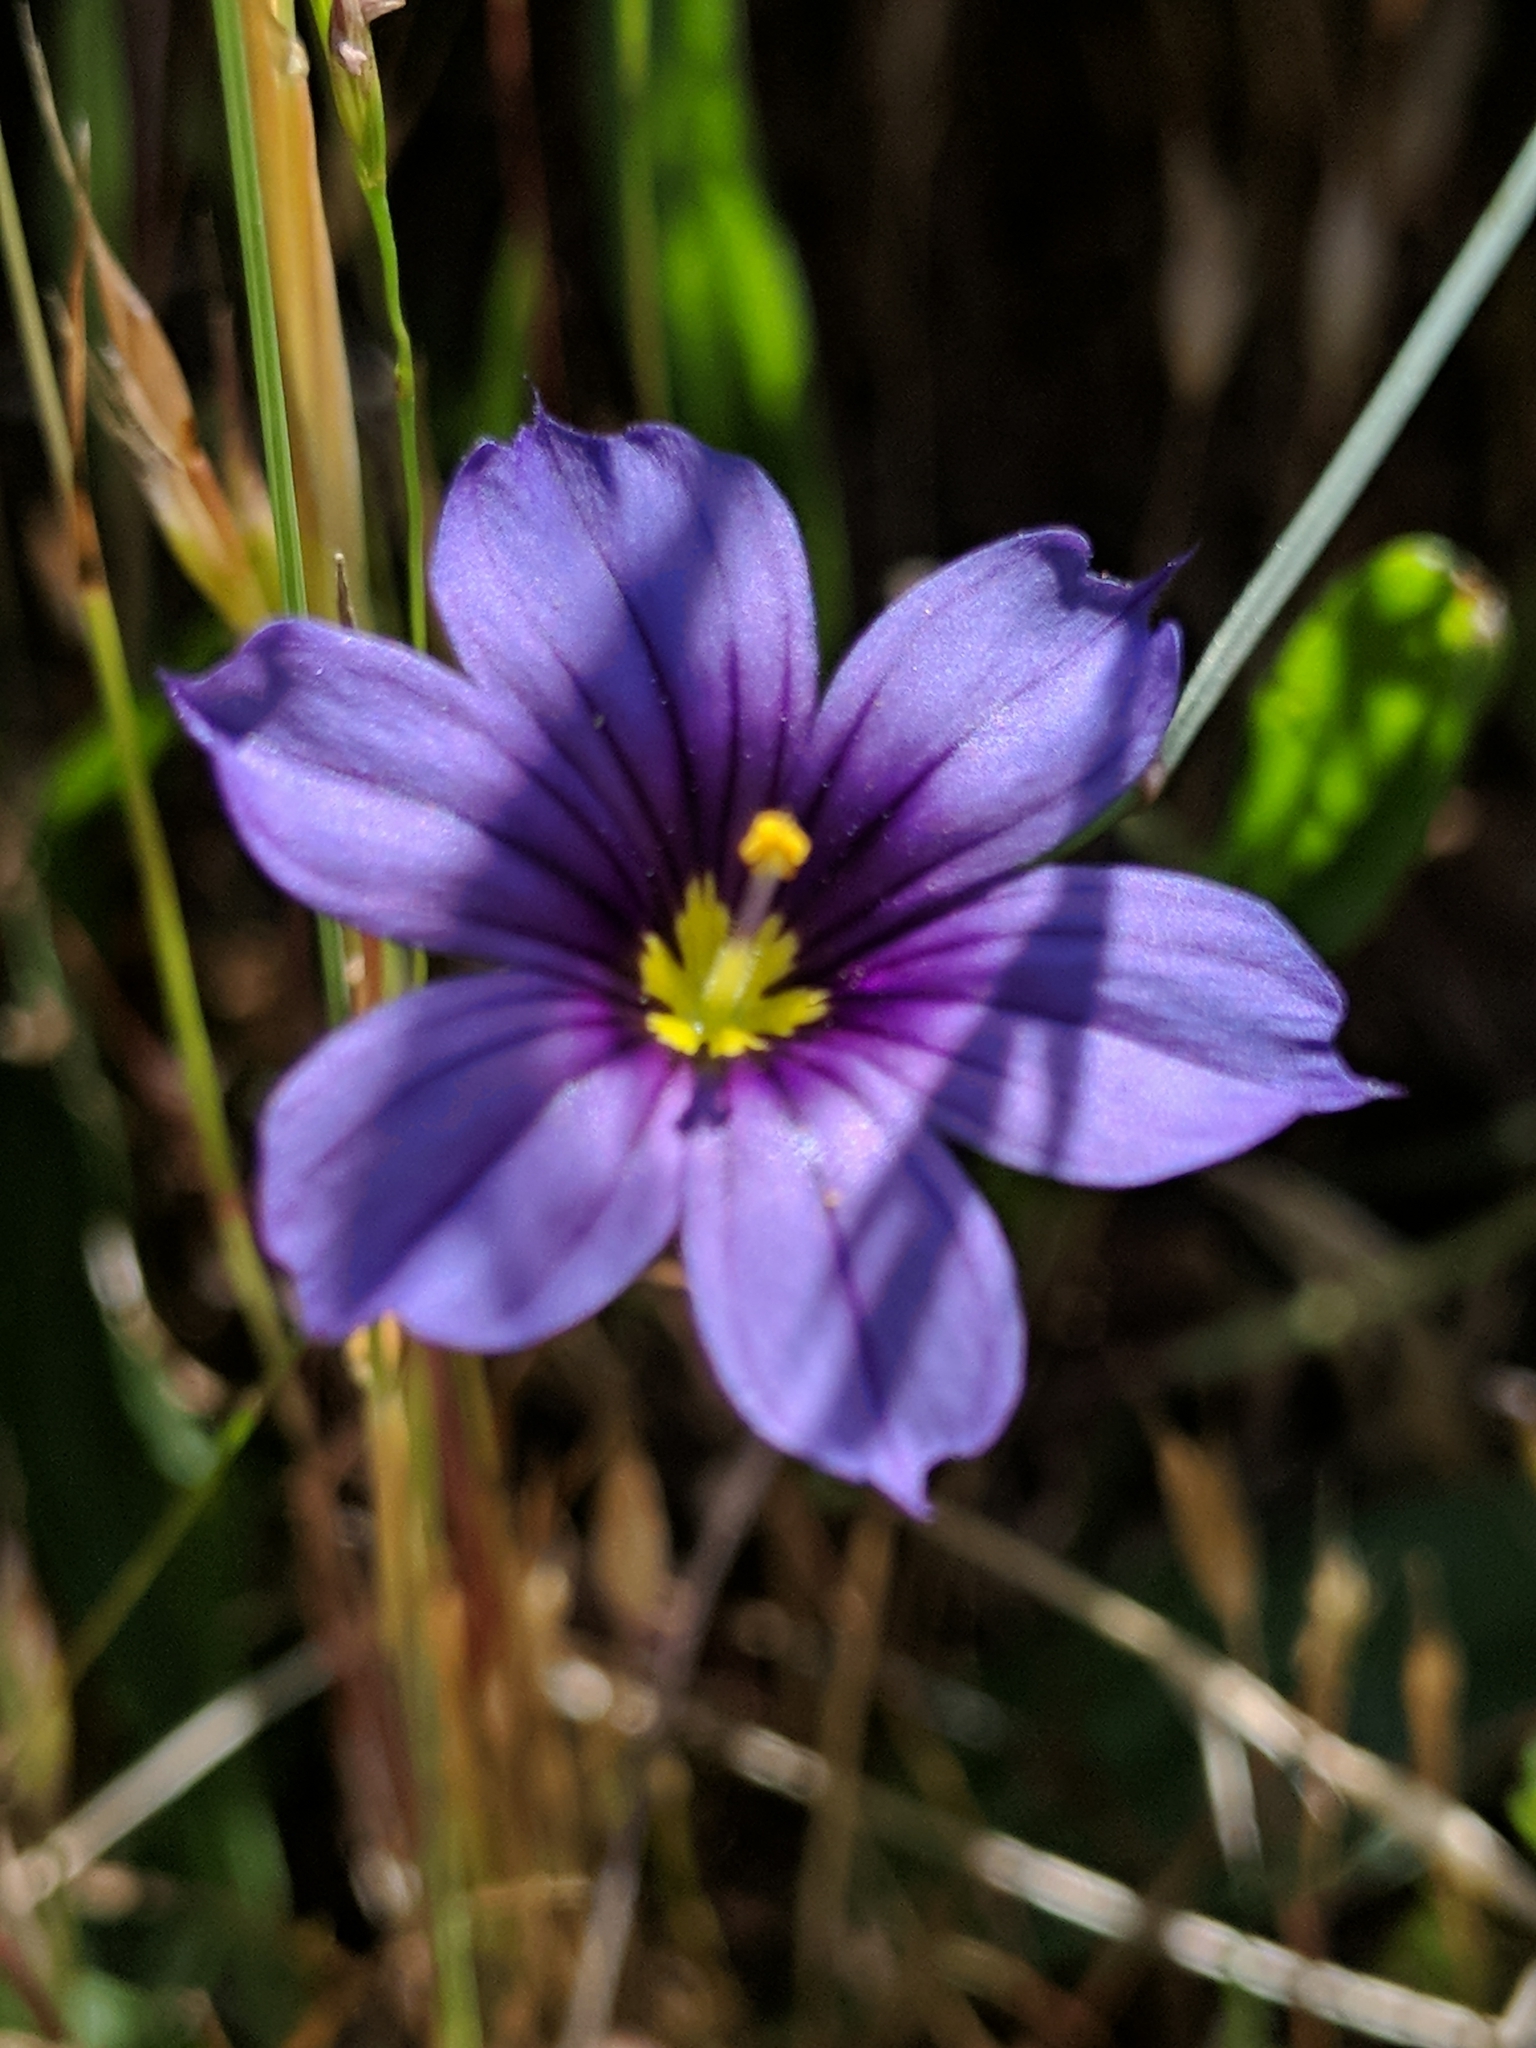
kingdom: Plantae
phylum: Tracheophyta
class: Liliopsida
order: Asparagales
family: Iridaceae
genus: Sisyrinchium
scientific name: Sisyrinchium bellum
